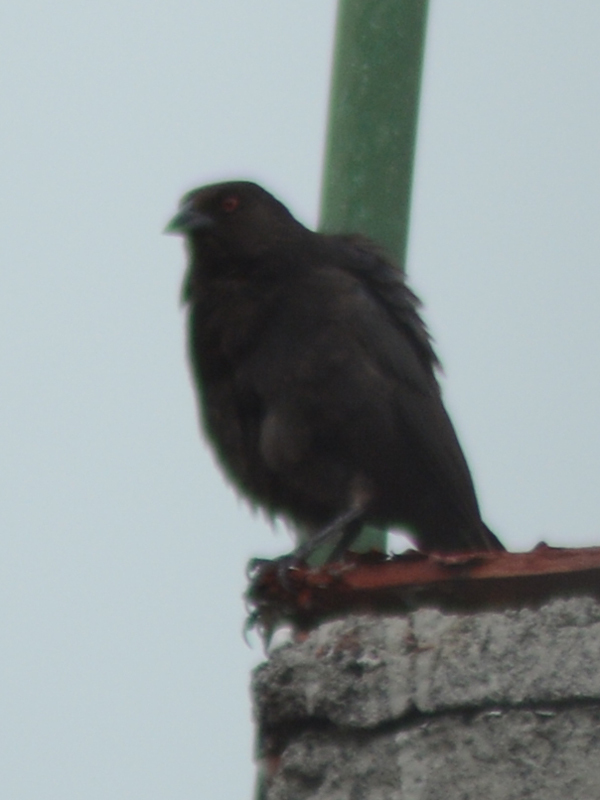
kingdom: Animalia
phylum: Chordata
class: Aves
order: Passeriformes
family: Icteridae
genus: Molothrus
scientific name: Molothrus aeneus
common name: Bronzed cowbird
